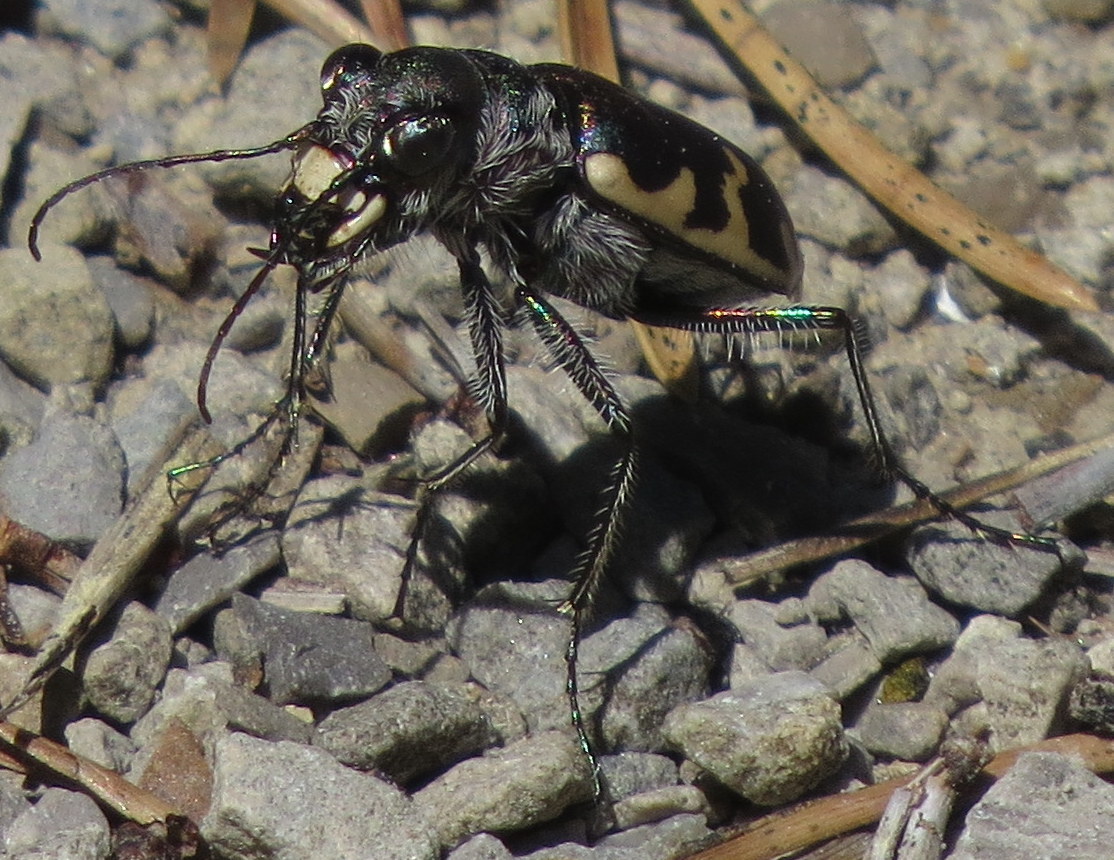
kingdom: Animalia
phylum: Arthropoda
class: Insecta
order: Coleoptera
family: Carabidae
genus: Cicindela
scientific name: Cicindela formosa
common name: Big sand tiger beetle
